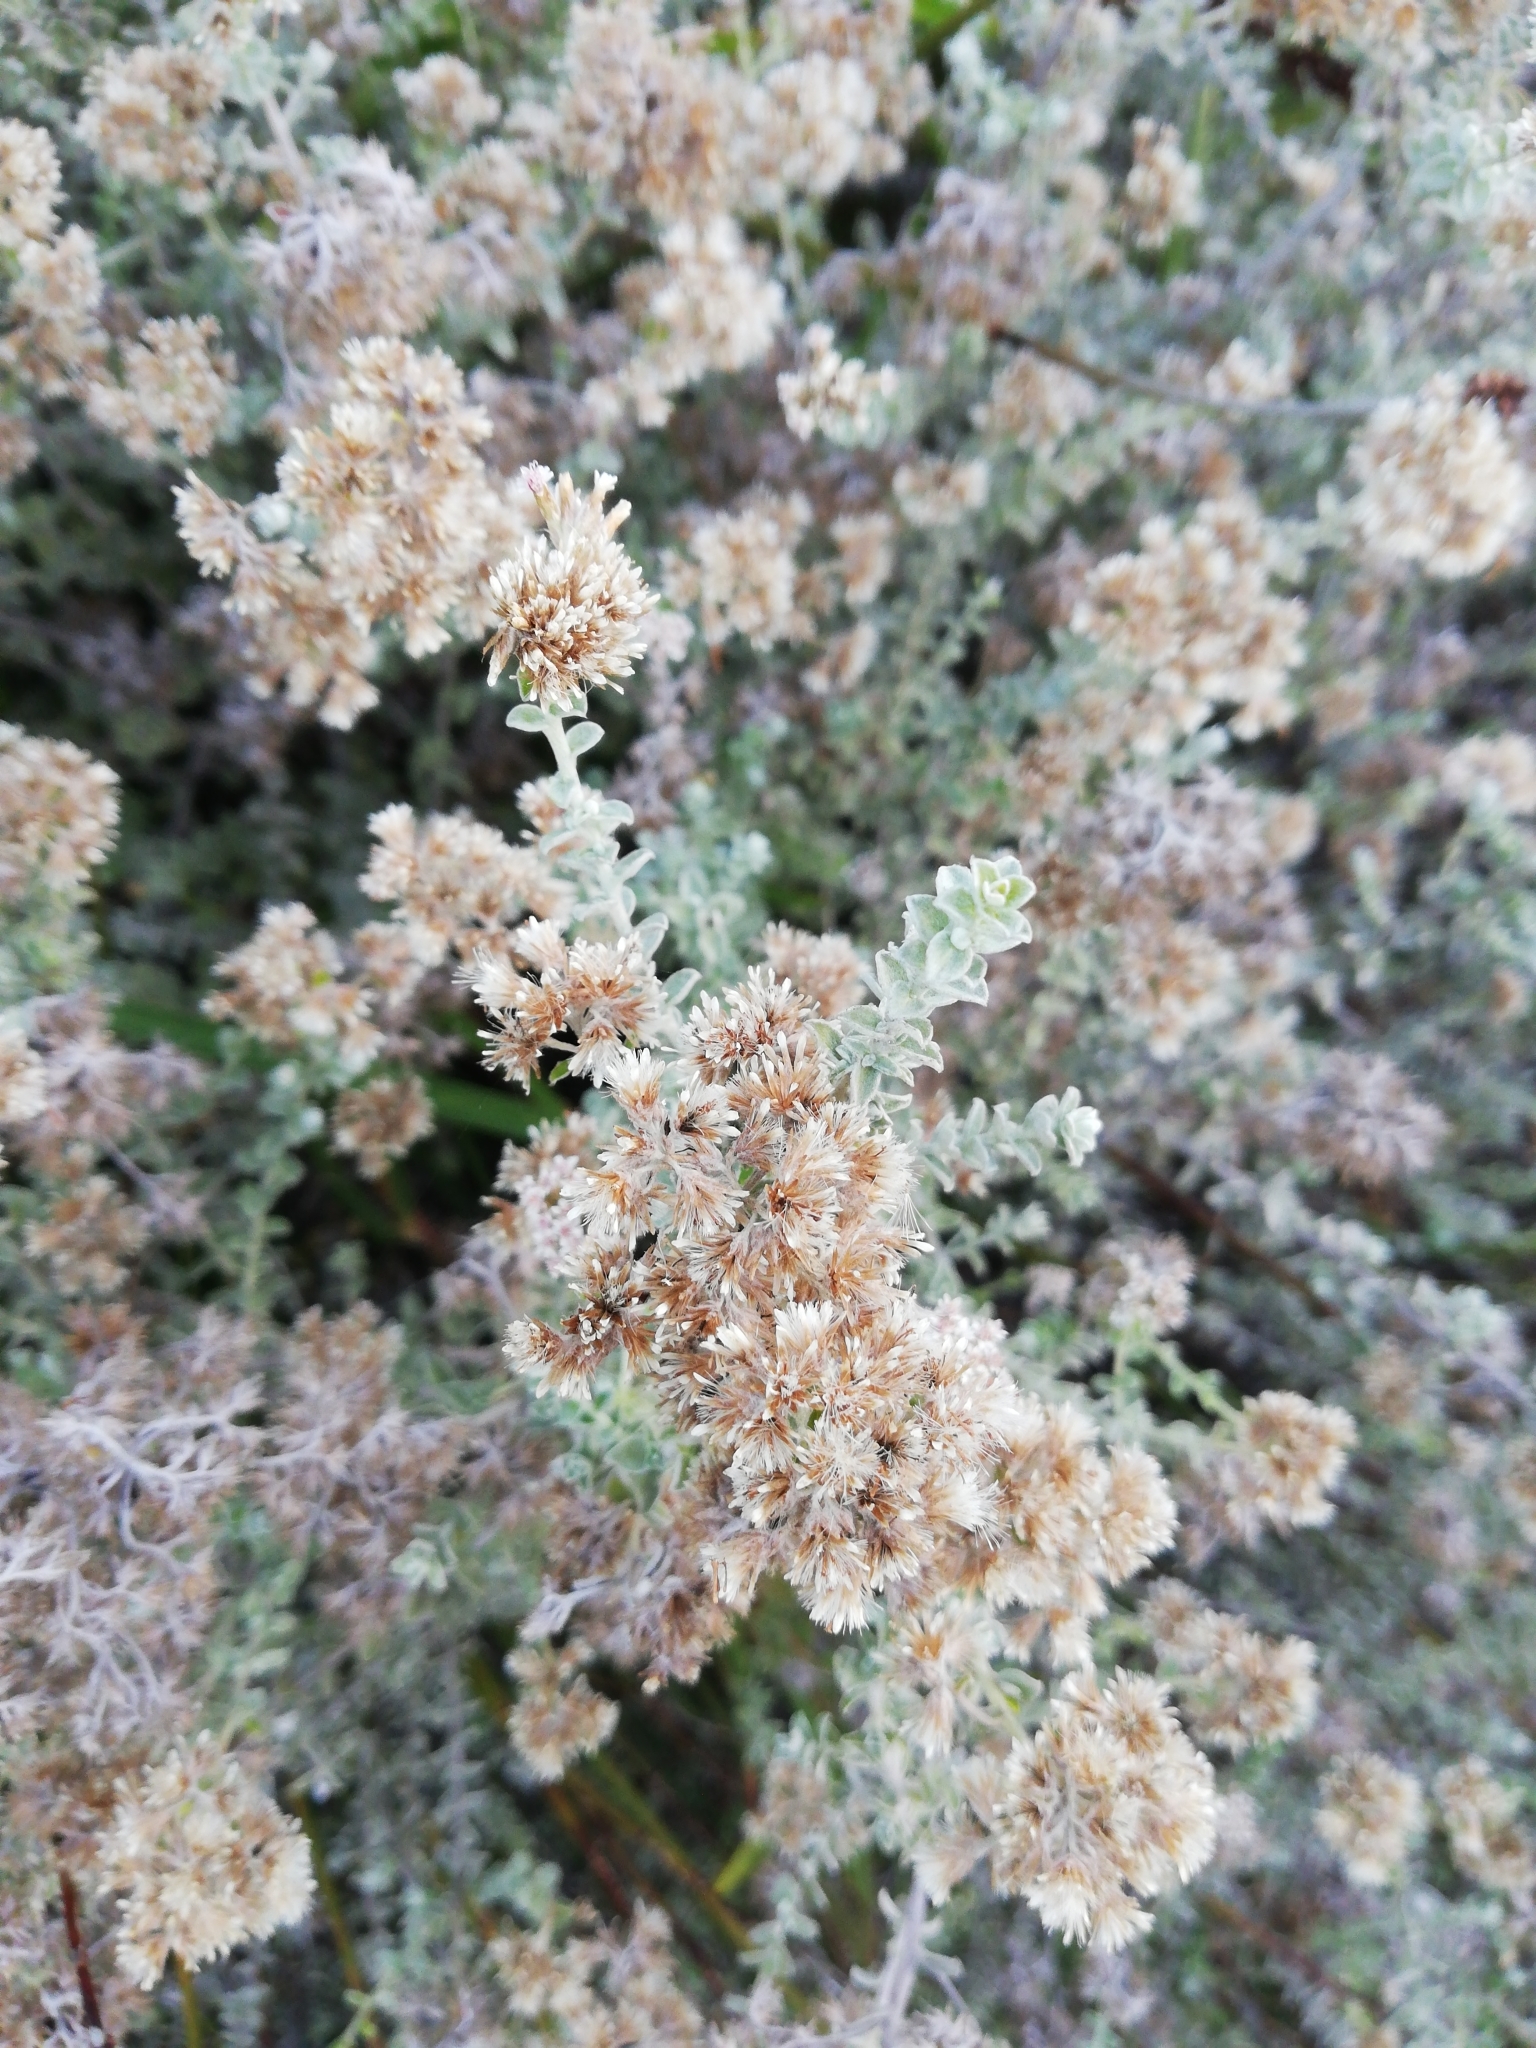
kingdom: Plantae
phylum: Tracheophyta
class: Magnoliopsida
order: Asterales
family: Asteraceae
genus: Plecostachys
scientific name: Plecostachys serpyllifolia
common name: Petite licorice
